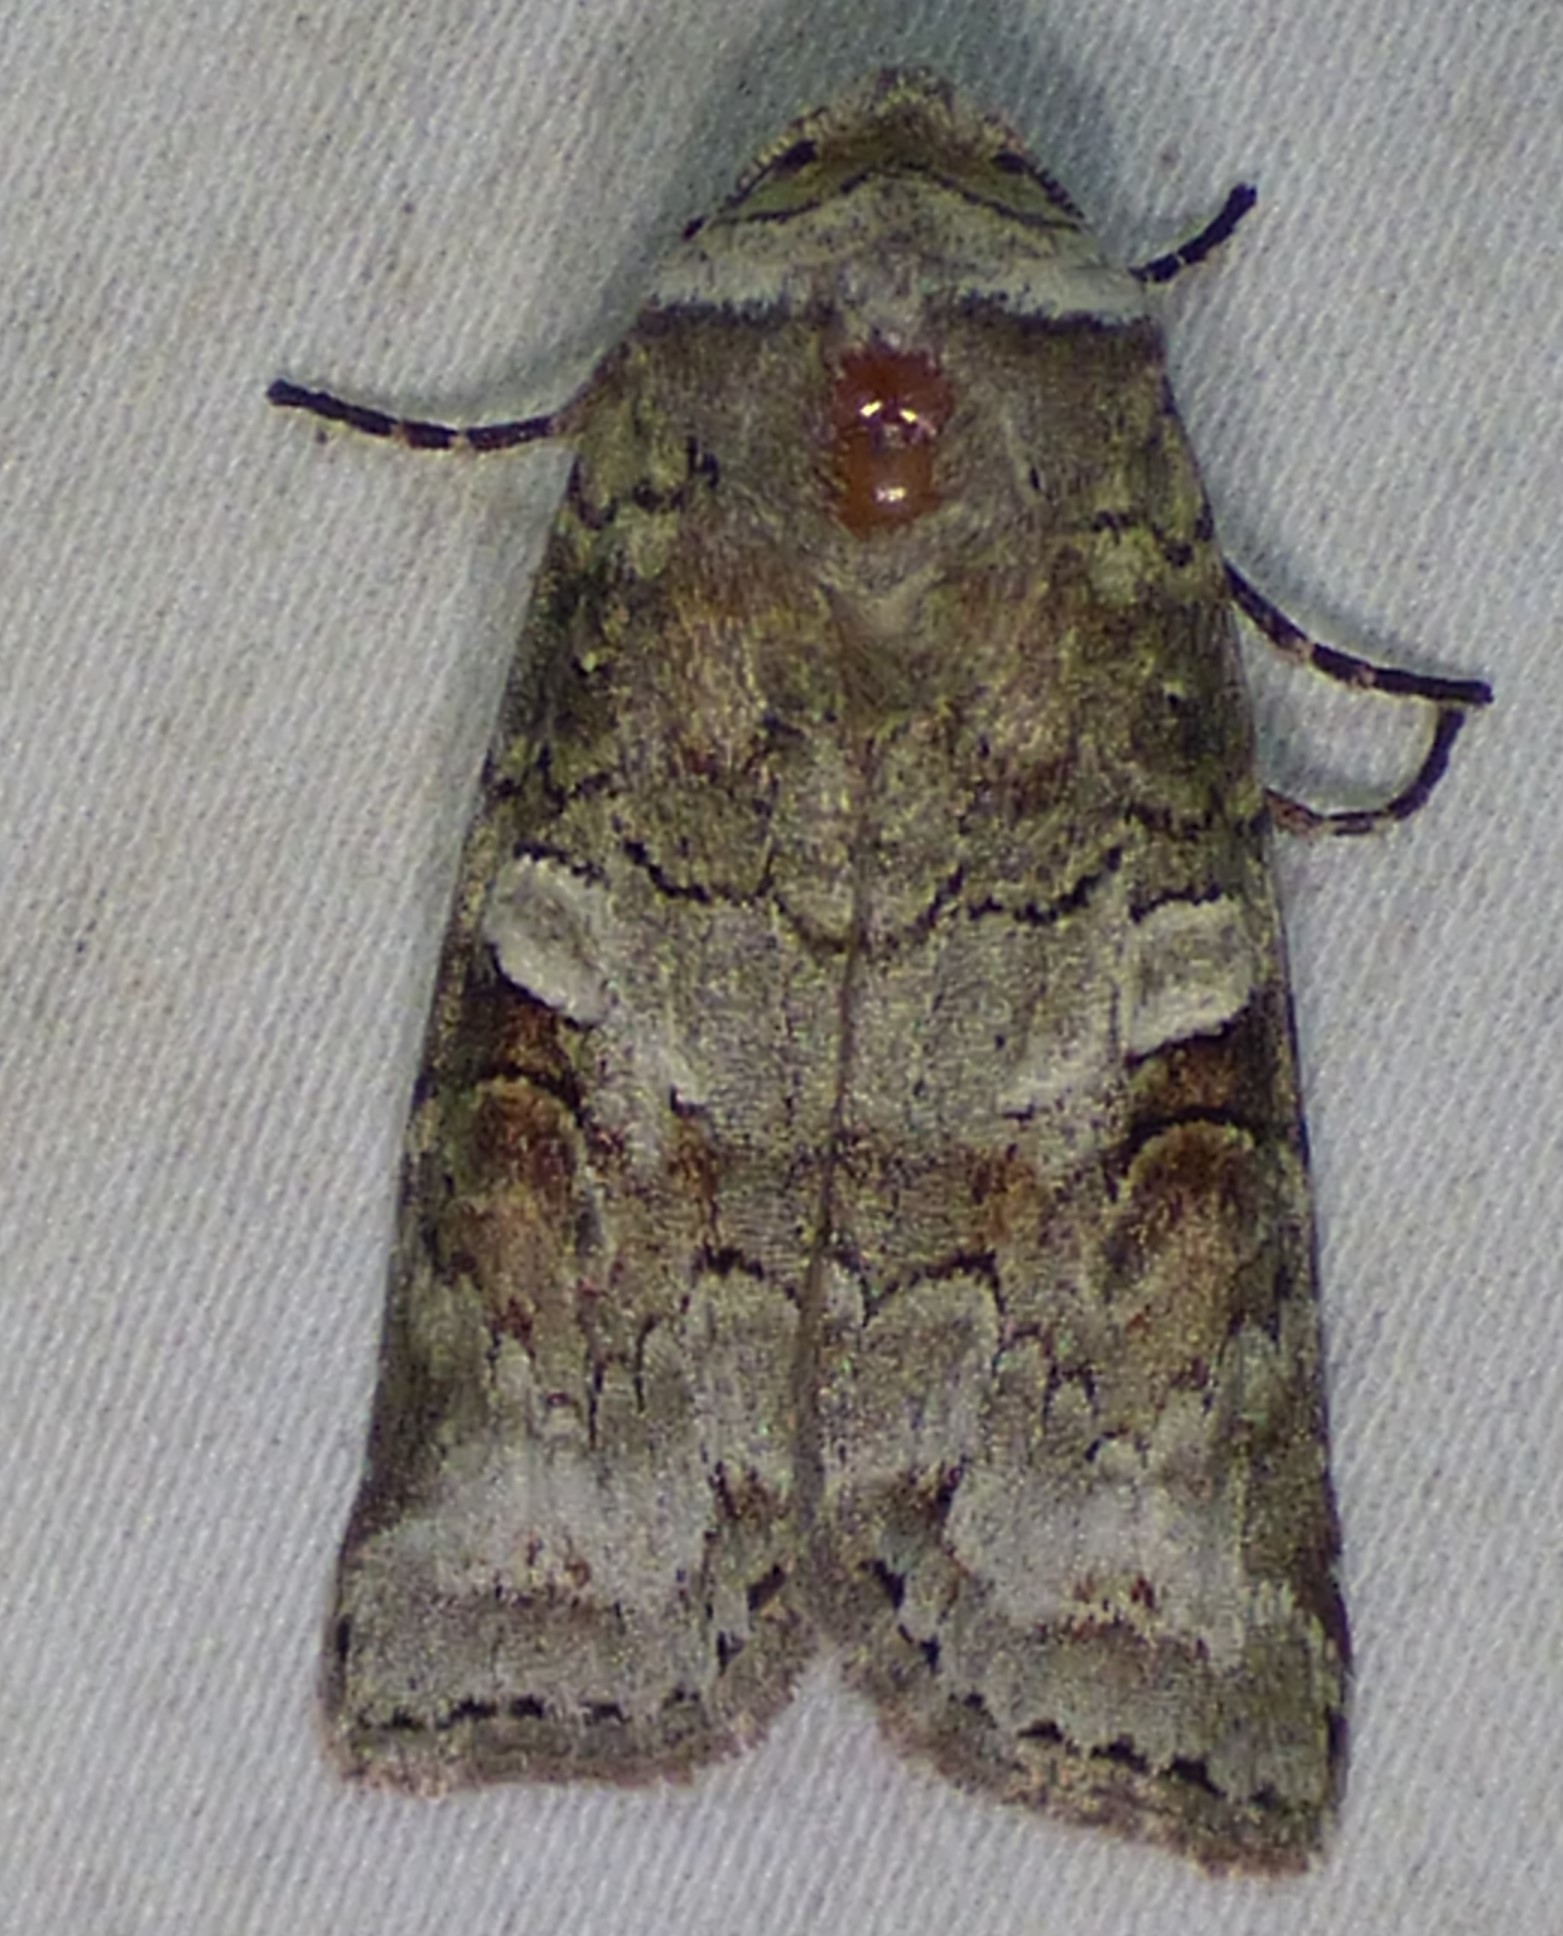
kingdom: Animalia
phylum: Arthropoda
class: Insecta
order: Lepidoptera
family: Noctuidae
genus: Egira
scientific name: Egira alternans
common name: Alternate woodling
